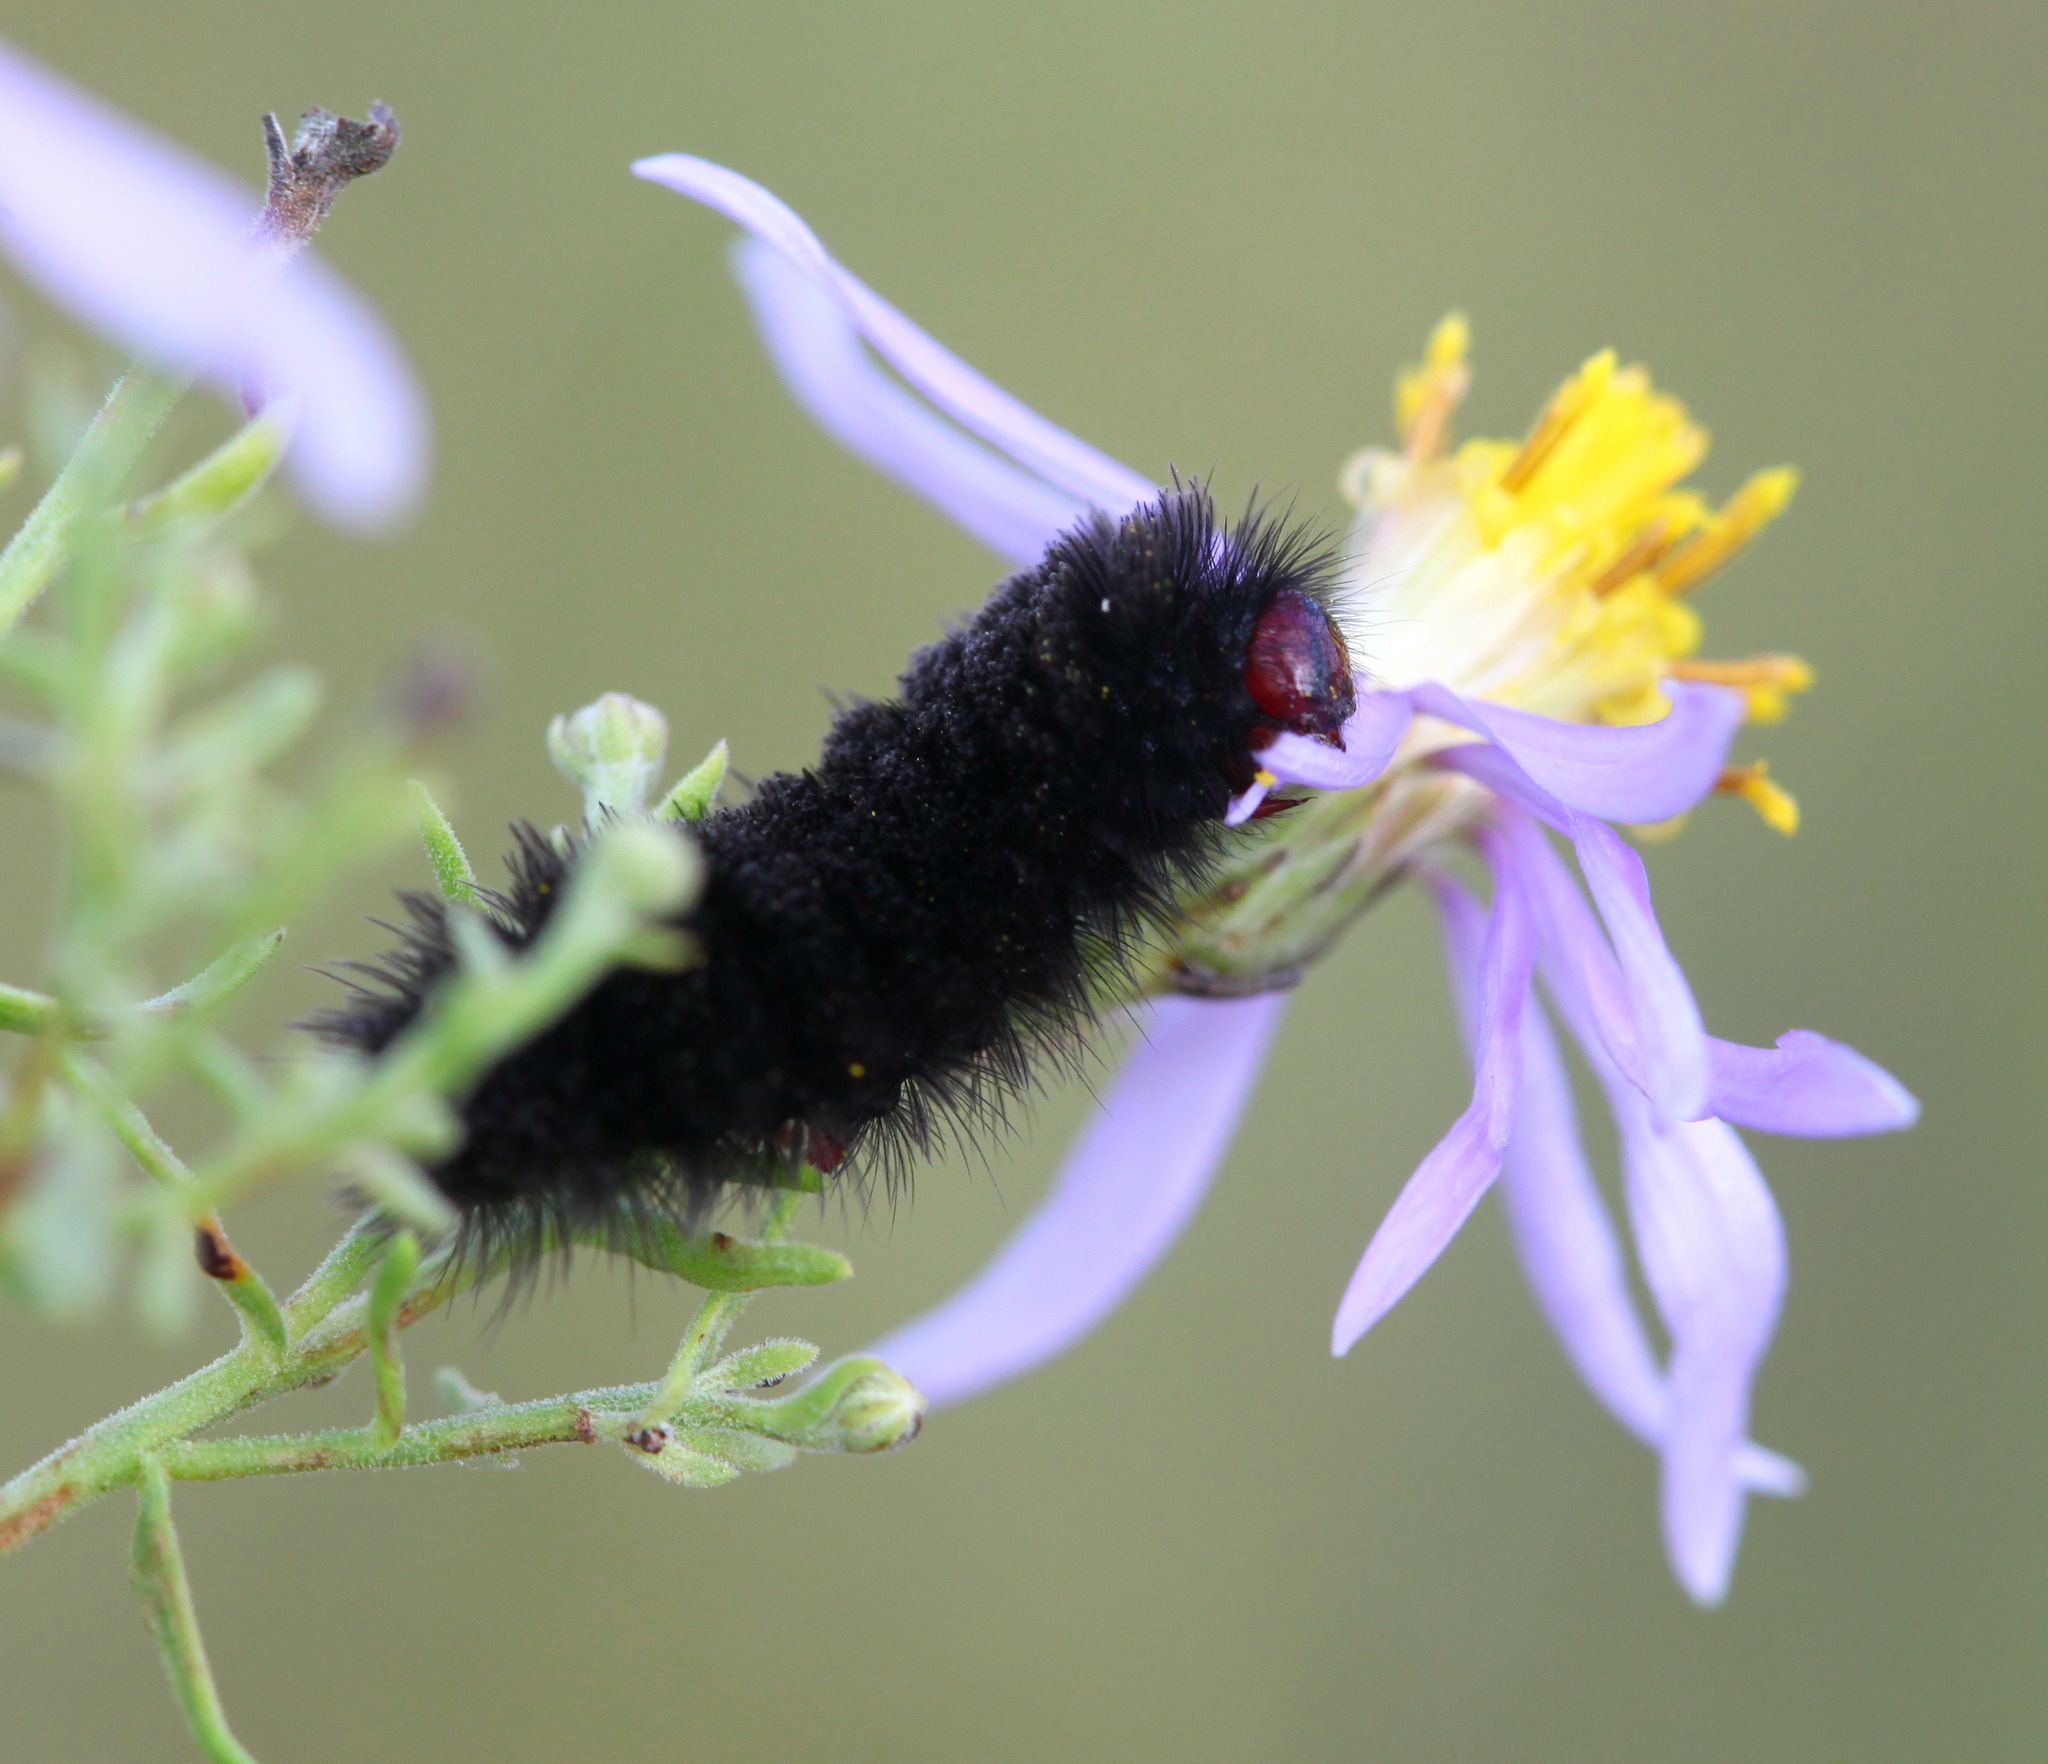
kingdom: Animalia
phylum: Arthropoda
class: Insecta
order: Lepidoptera
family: Erebidae
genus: Amata
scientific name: Amata transcaspica
